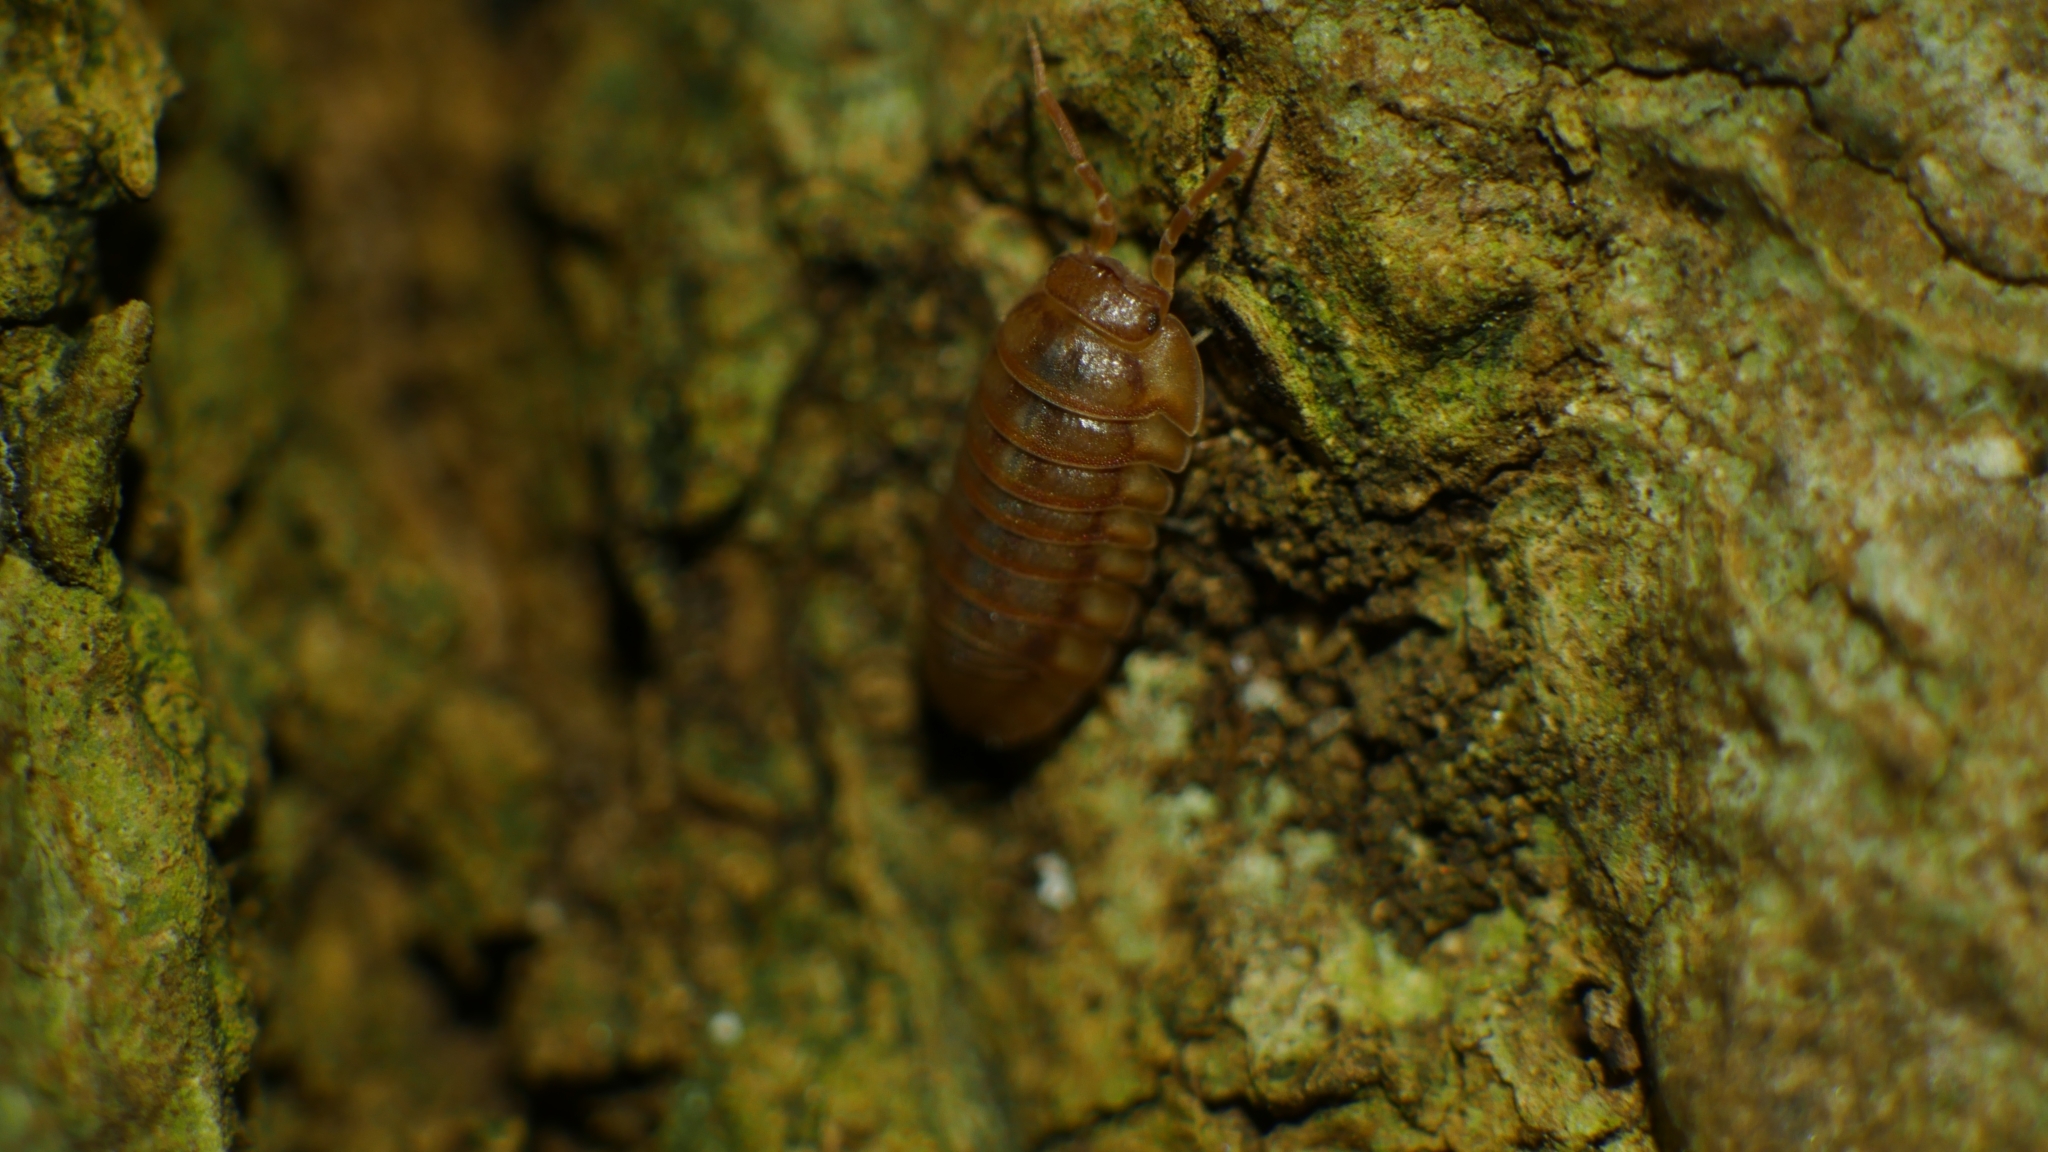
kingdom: Animalia
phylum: Arthropoda
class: Malacostraca
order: Isopoda
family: Armadillidiidae
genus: Armadillidium
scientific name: Armadillidium nasatum
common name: Isopod
